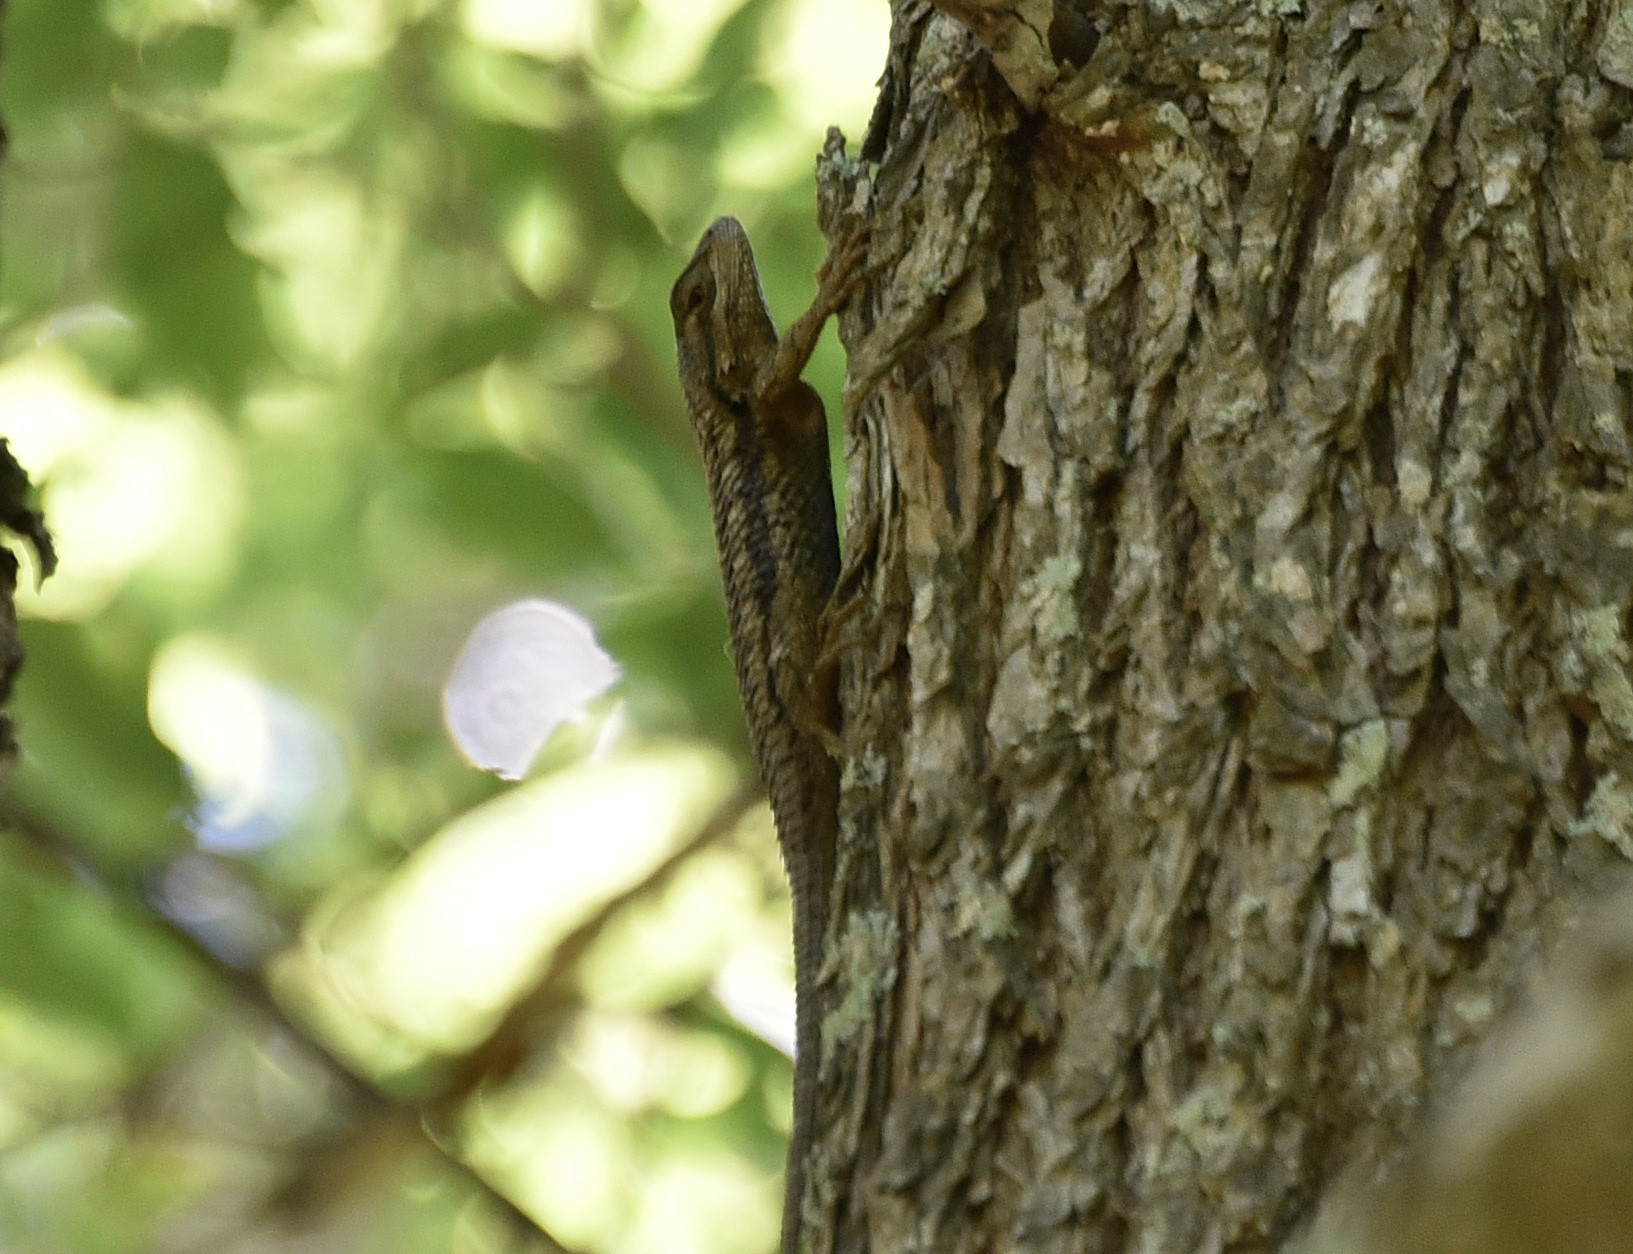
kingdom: Animalia
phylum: Chordata
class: Squamata
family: Phrynosomatidae
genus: Sceloporus
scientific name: Sceloporus olivaceus
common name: Texas spiny lizard
